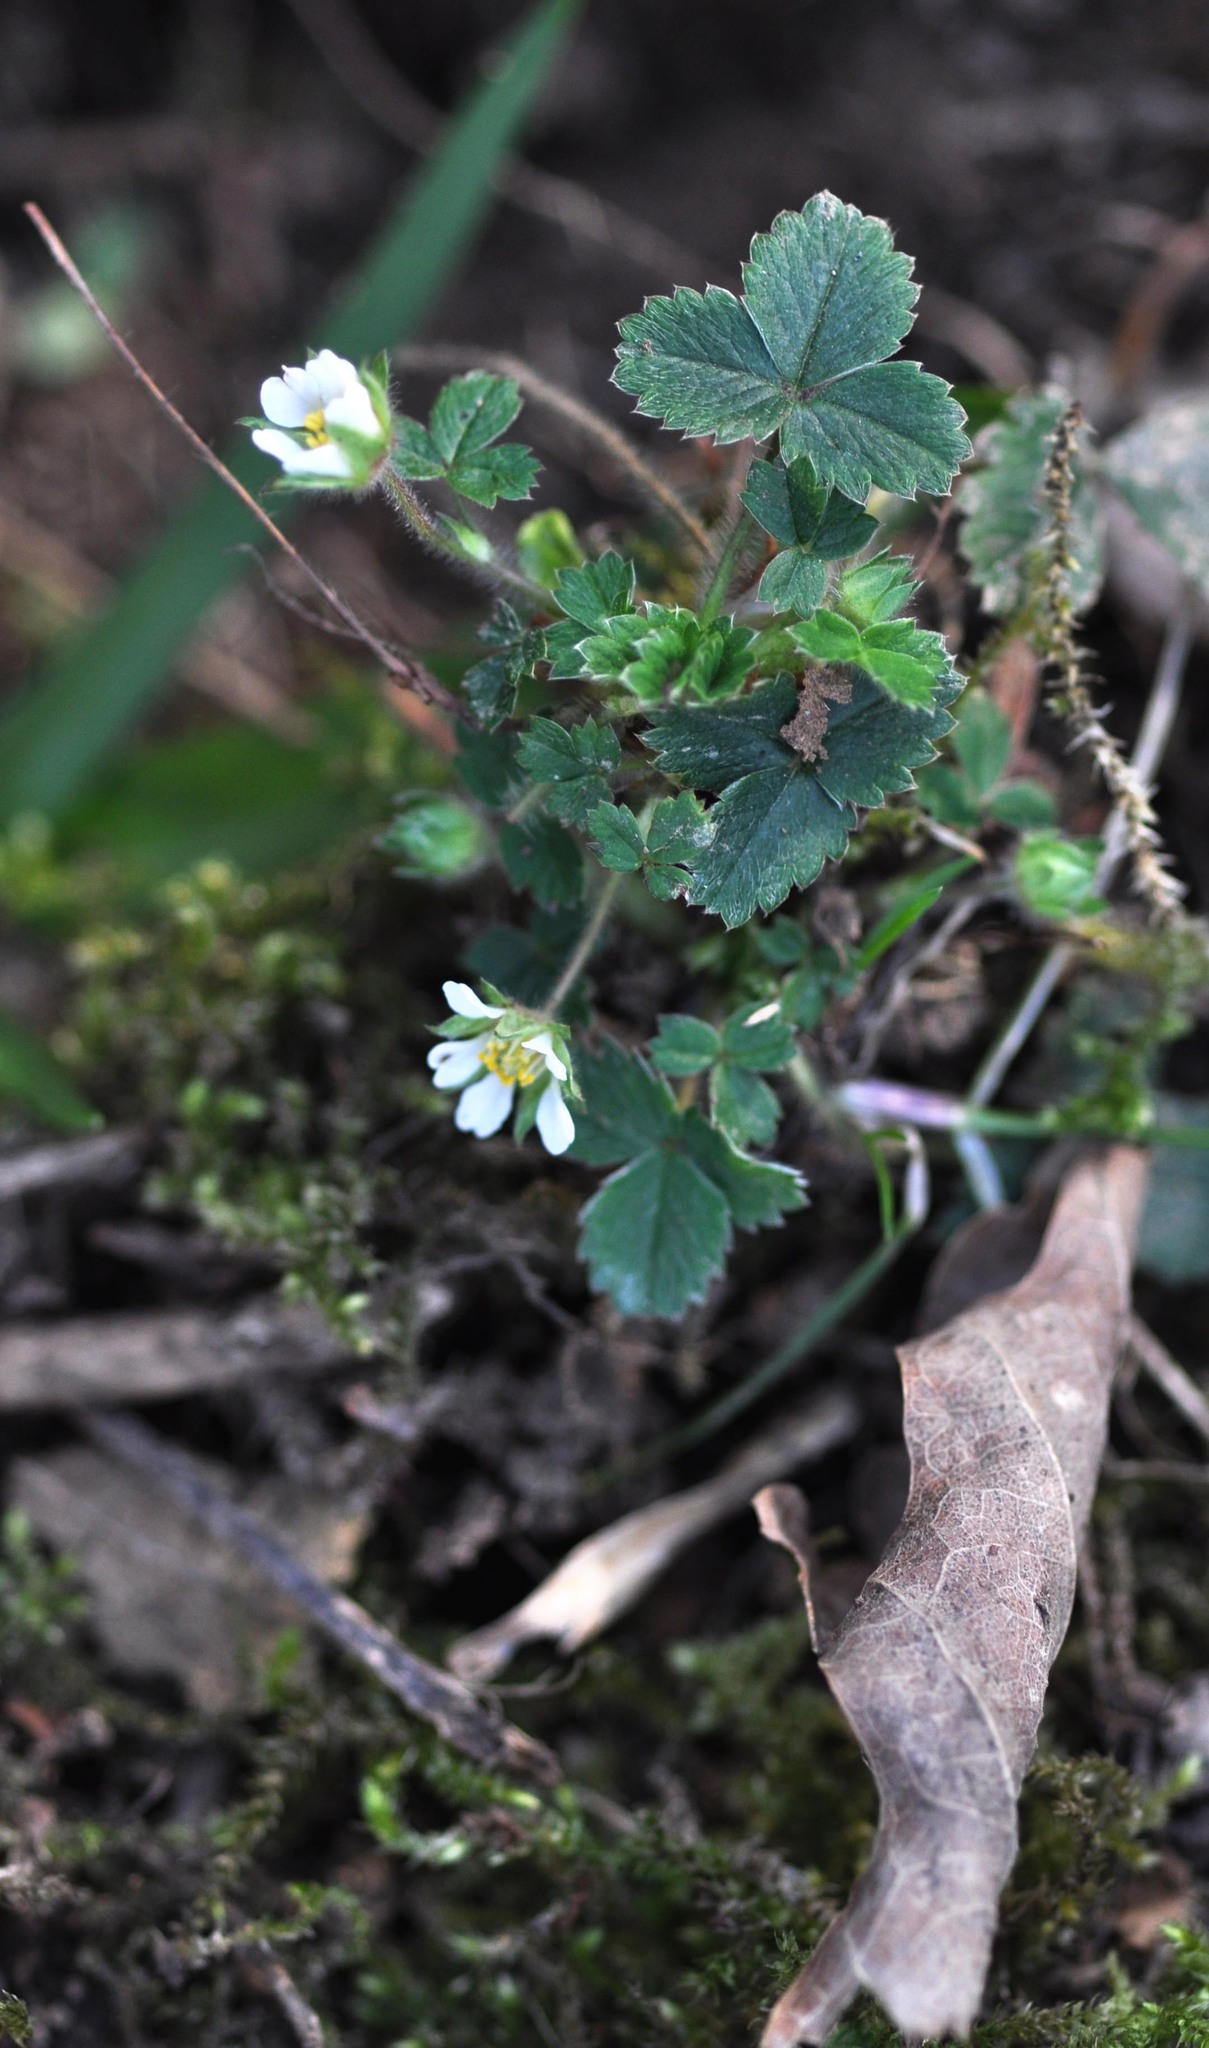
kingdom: Plantae
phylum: Tracheophyta
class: Magnoliopsida
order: Rosales
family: Rosaceae
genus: Potentilla
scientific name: Potentilla sterilis
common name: Barren strawberry
